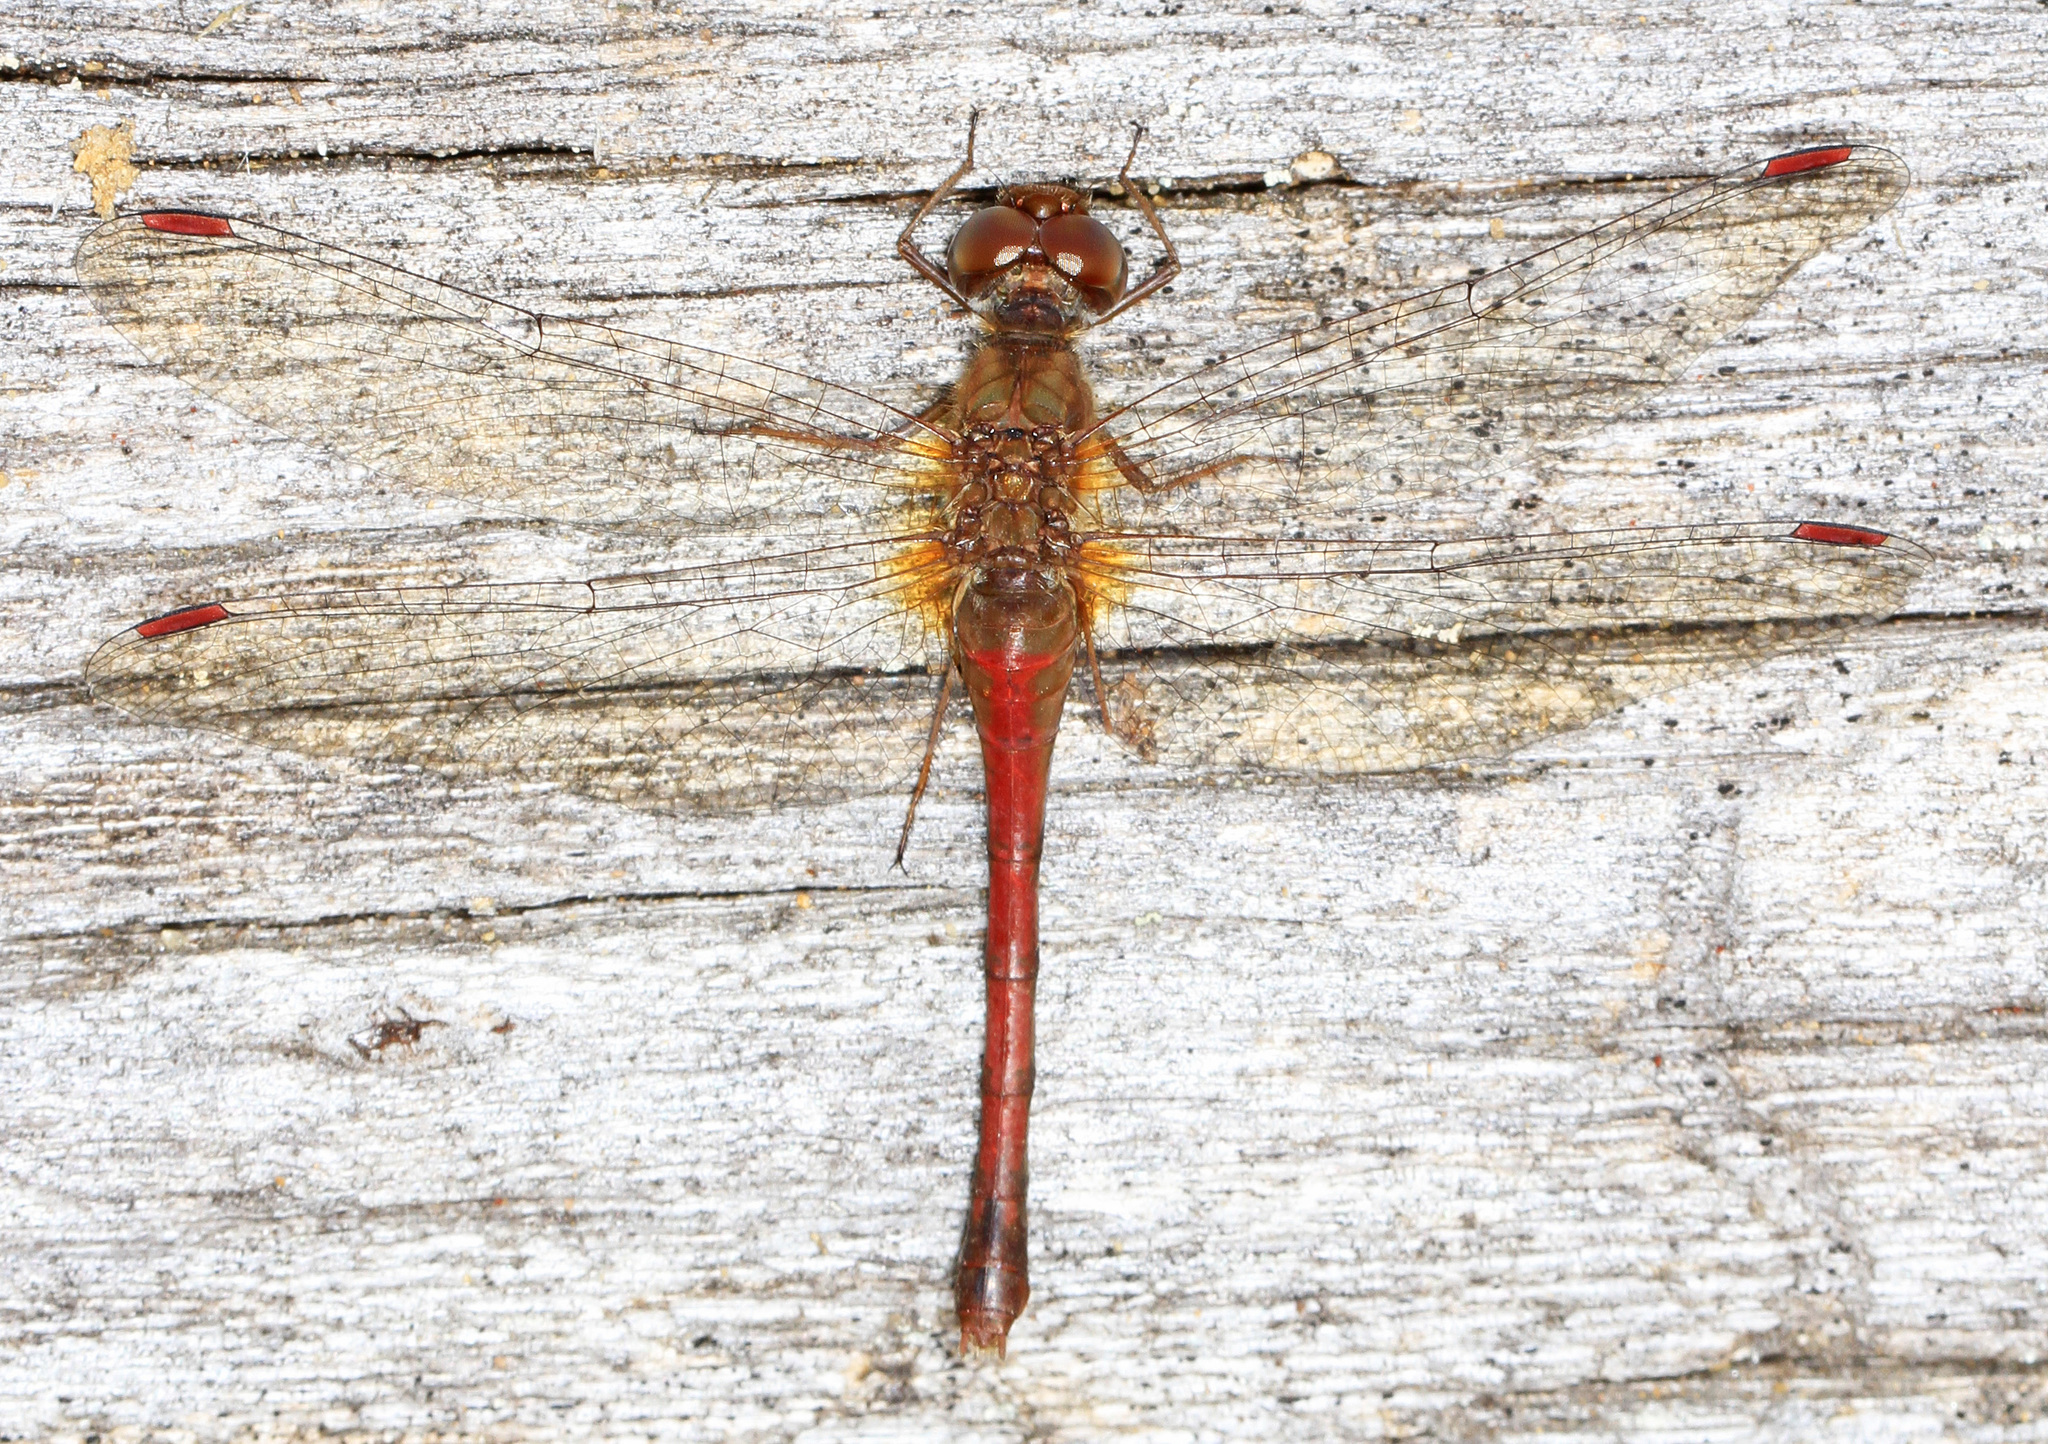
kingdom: Animalia
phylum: Arthropoda
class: Insecta
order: Odonata
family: Libellulidae
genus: Sympetrum
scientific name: Sympetrum vicinum
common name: Autumn meadowhawk
